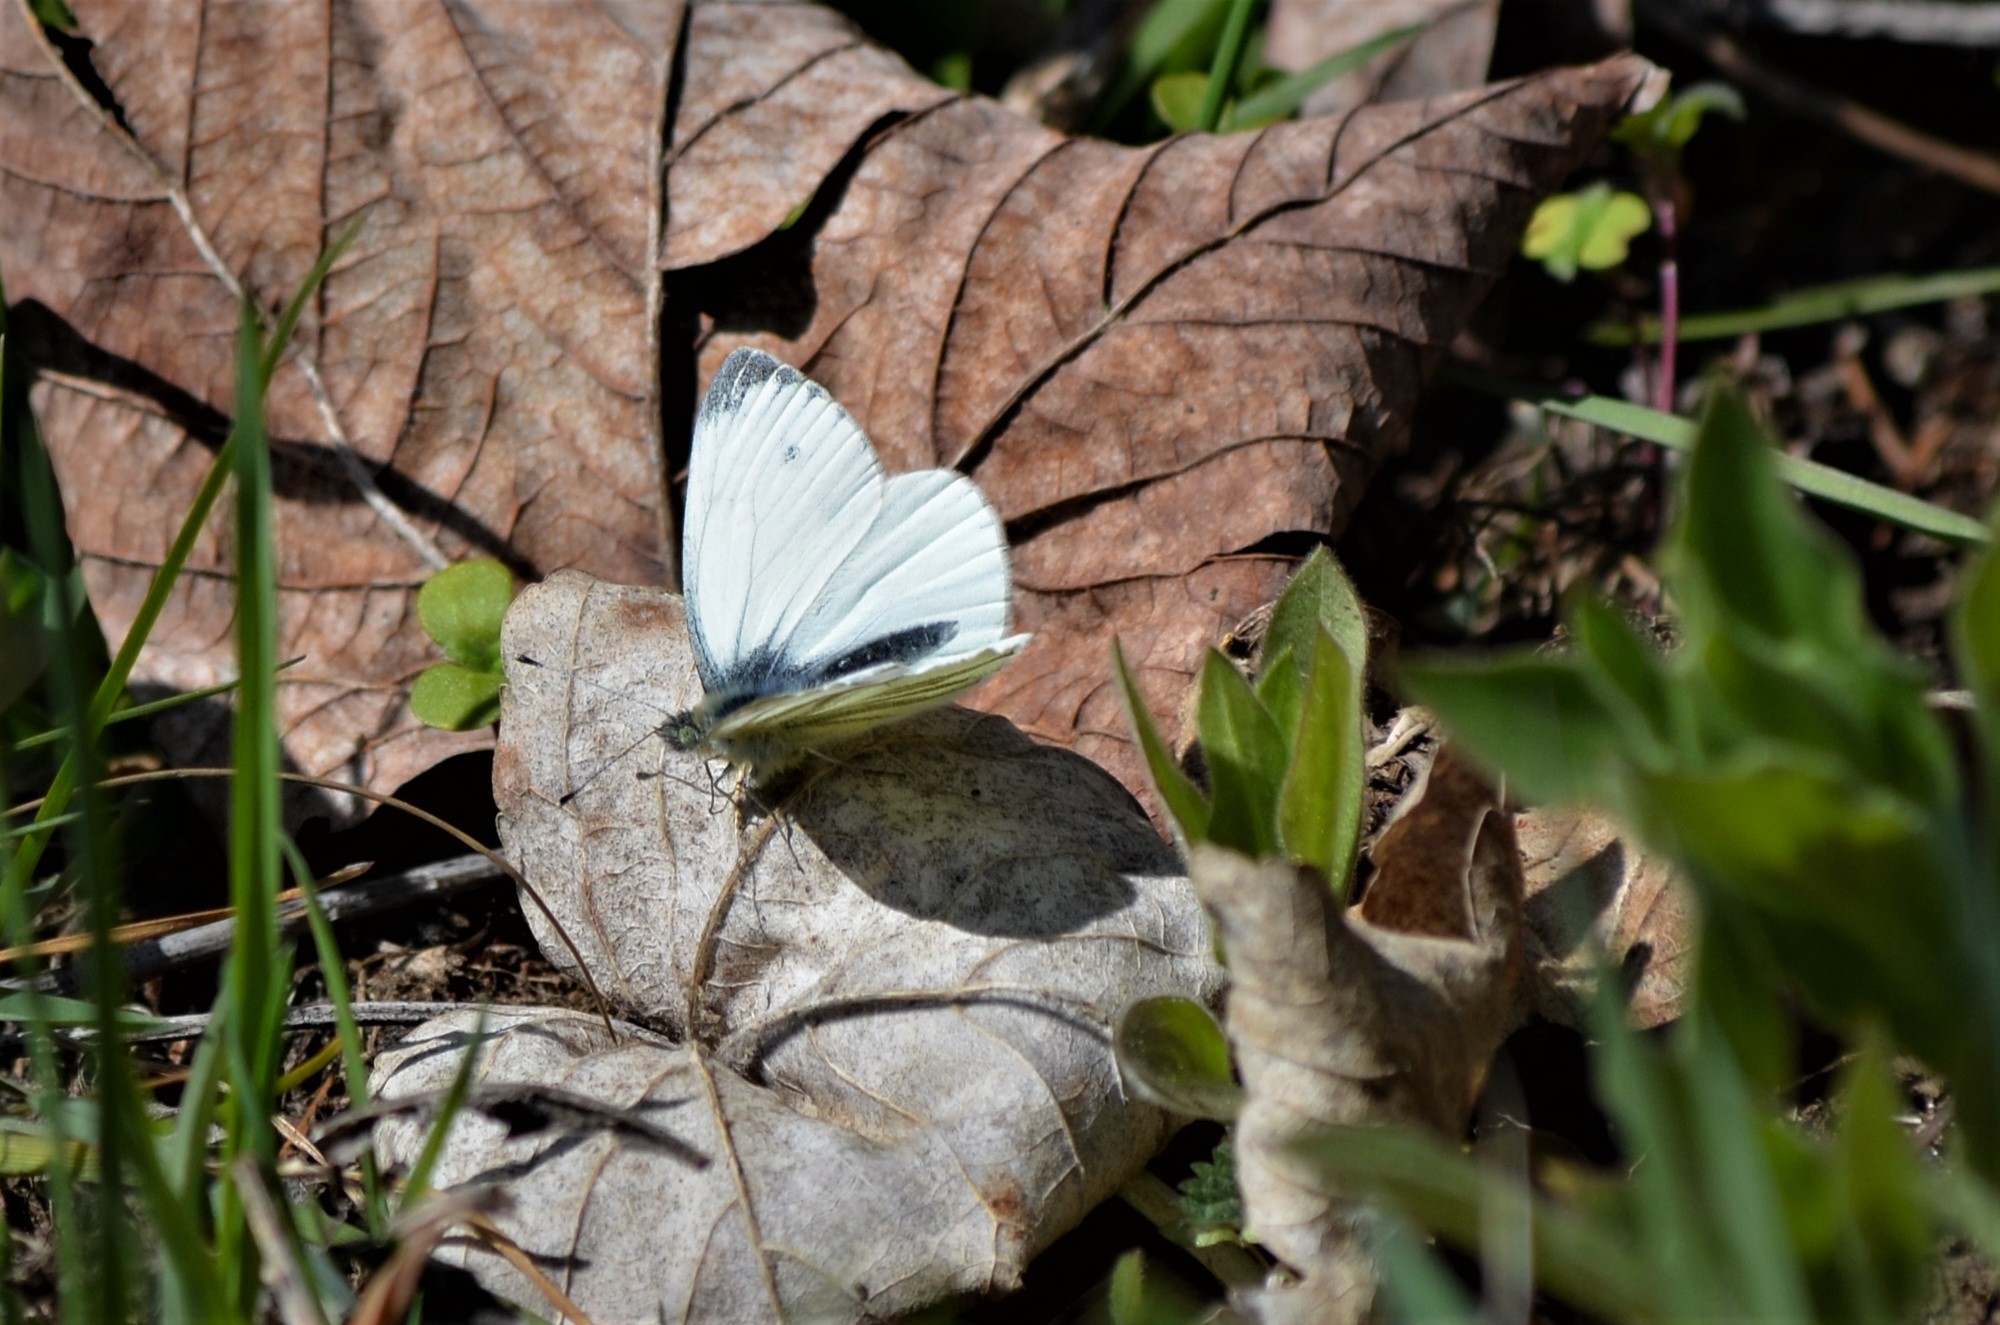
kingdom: Animalia
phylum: Arthropoda
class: Insecta
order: Lepidoptera
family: Pieridae
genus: Pieris
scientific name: Pieris napi
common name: Green-veined white
